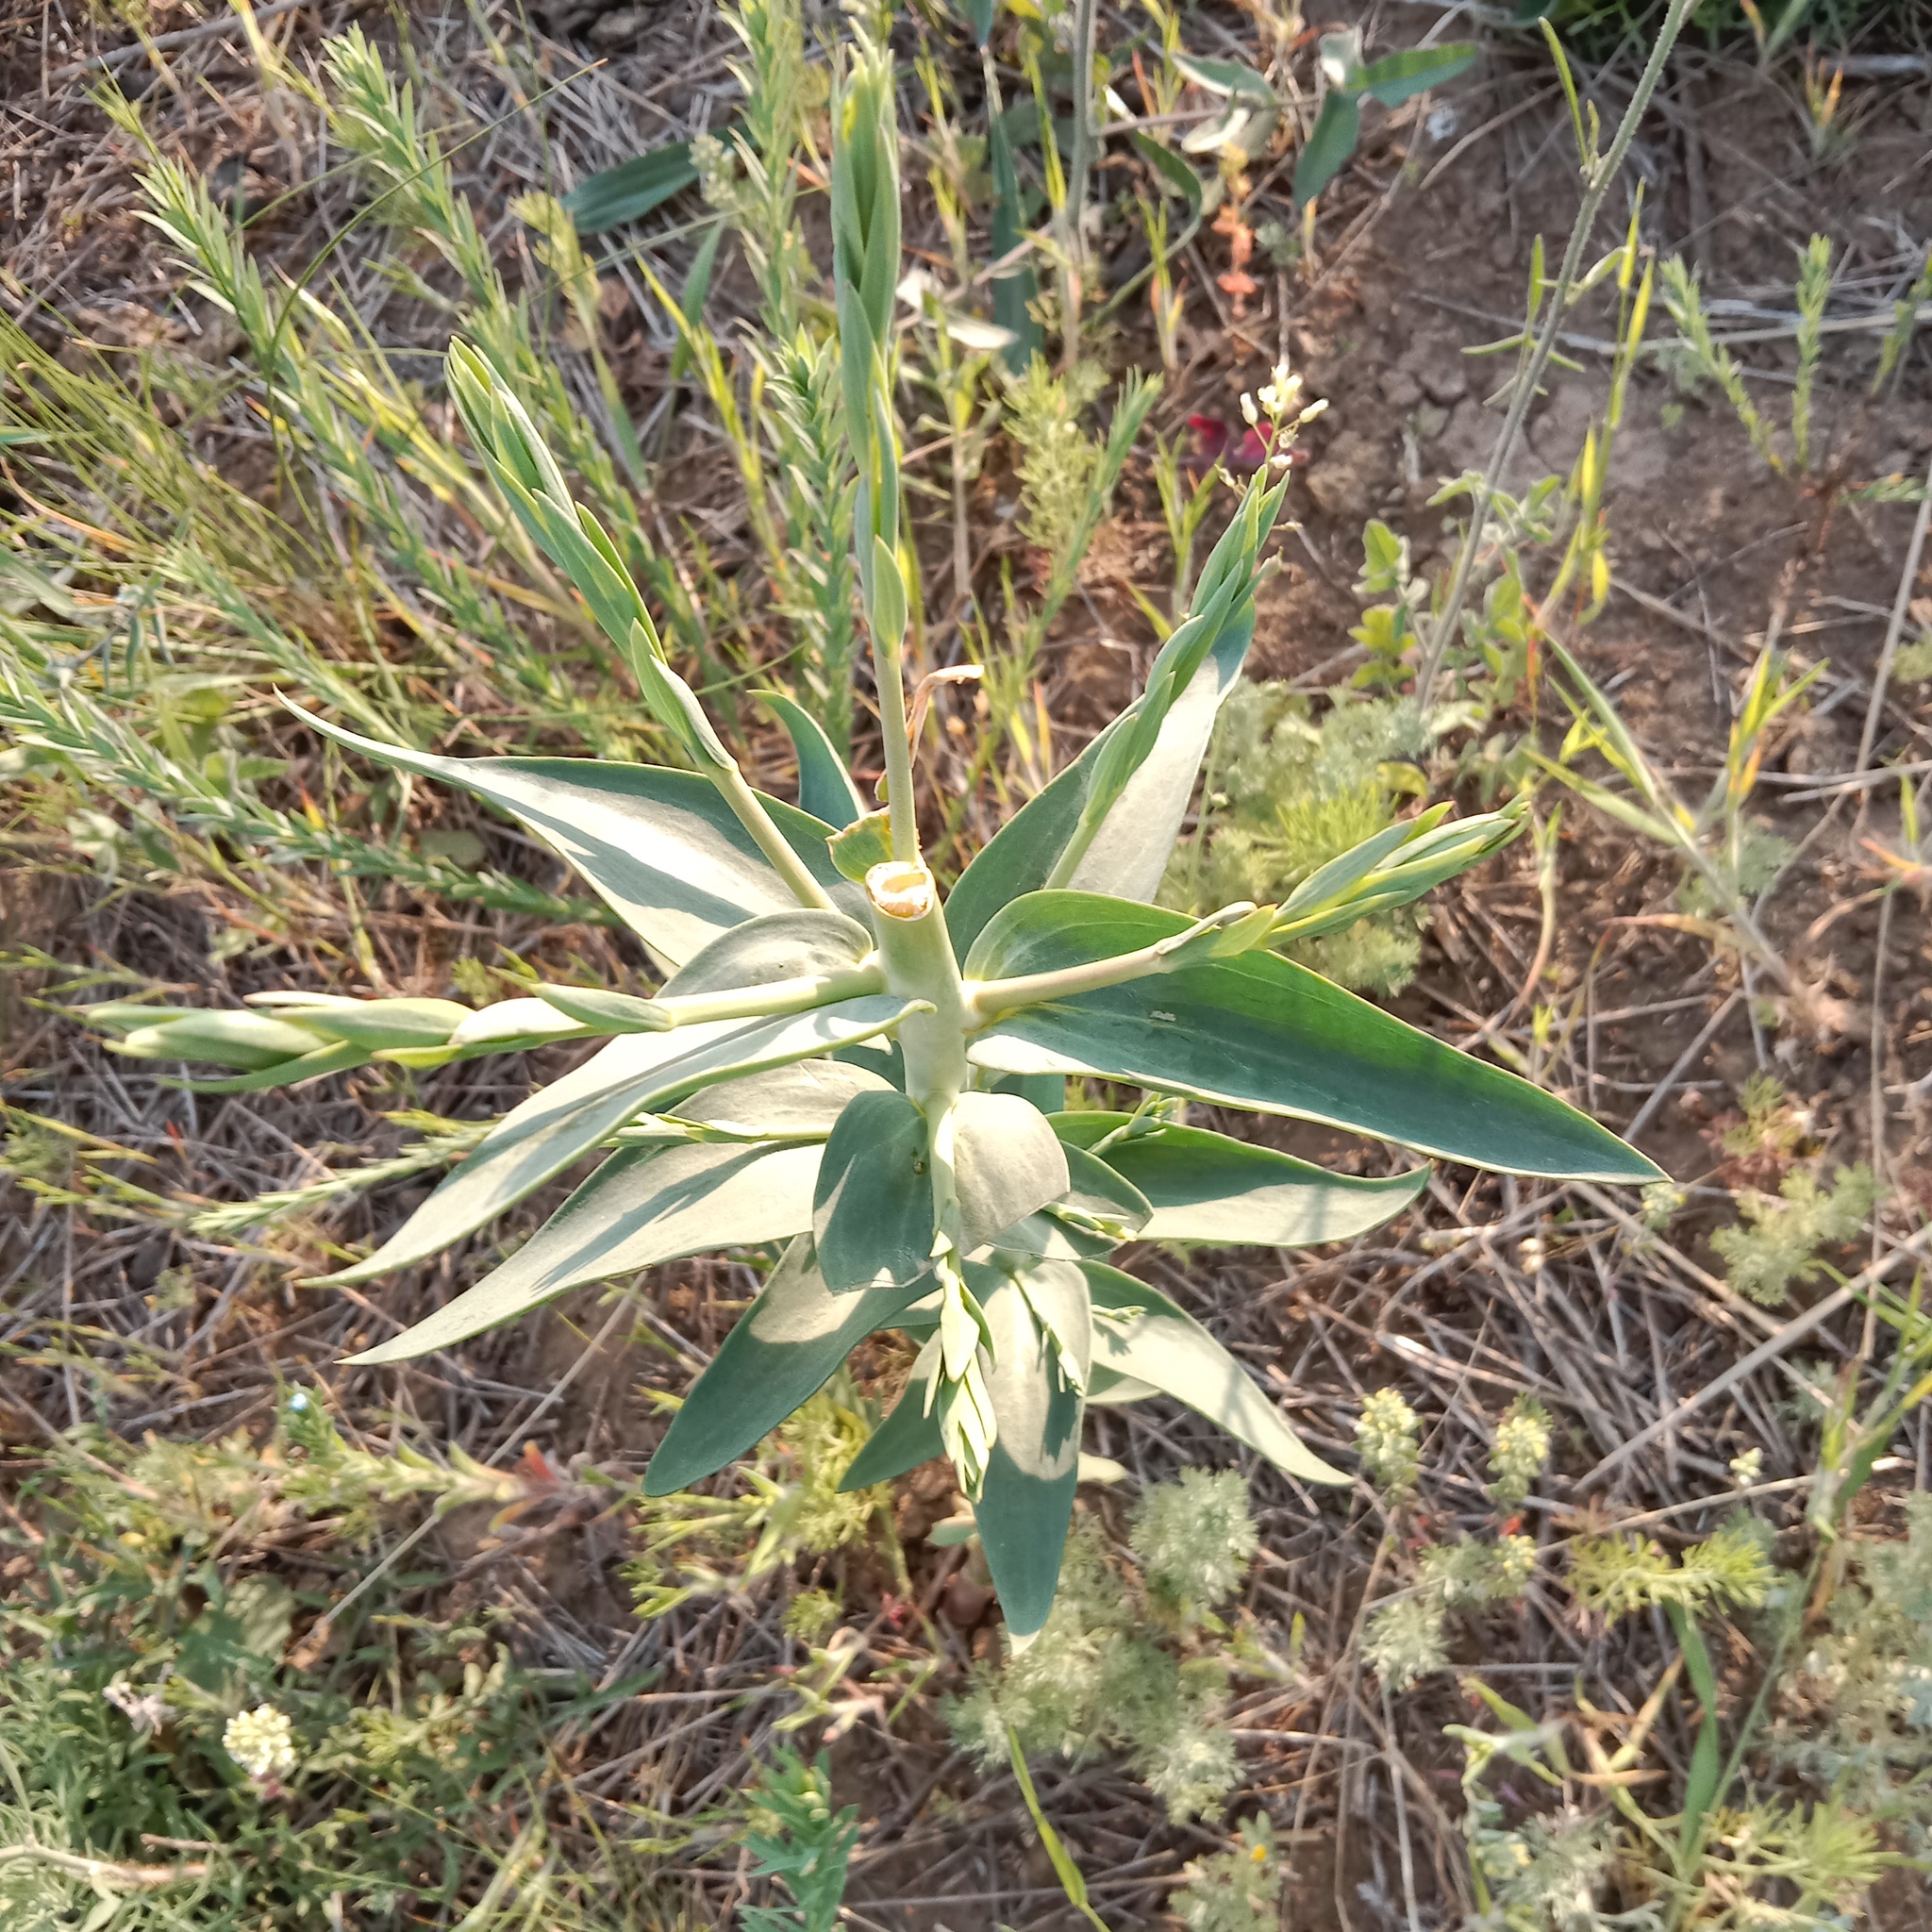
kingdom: Plantae
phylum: Tracheophyta
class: Magnoliopsida
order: Lamiales
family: Plantaginaceae
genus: Linaria
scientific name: Linaria genistifolia
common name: Broomleaf toadflax
